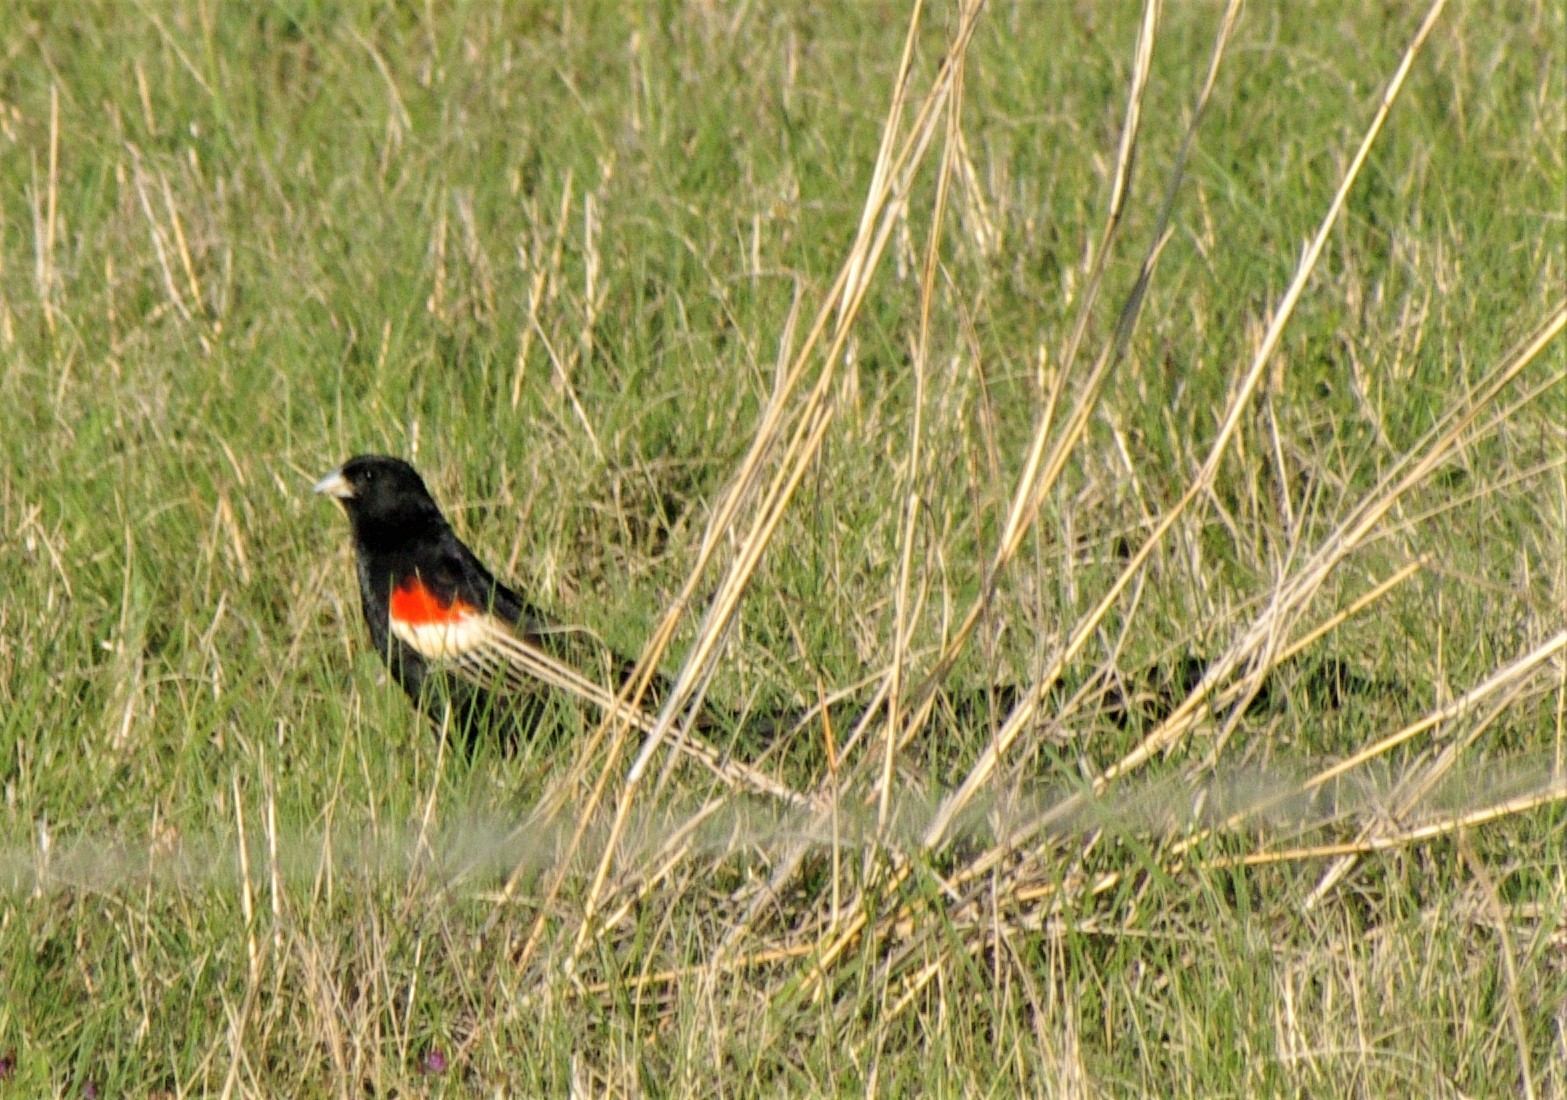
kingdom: Animalia
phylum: Chordata
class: Aves
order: Passeriformes
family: Ploceidae
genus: Euplectes
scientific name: Euplectes progne
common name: Long-tailed widowbird
